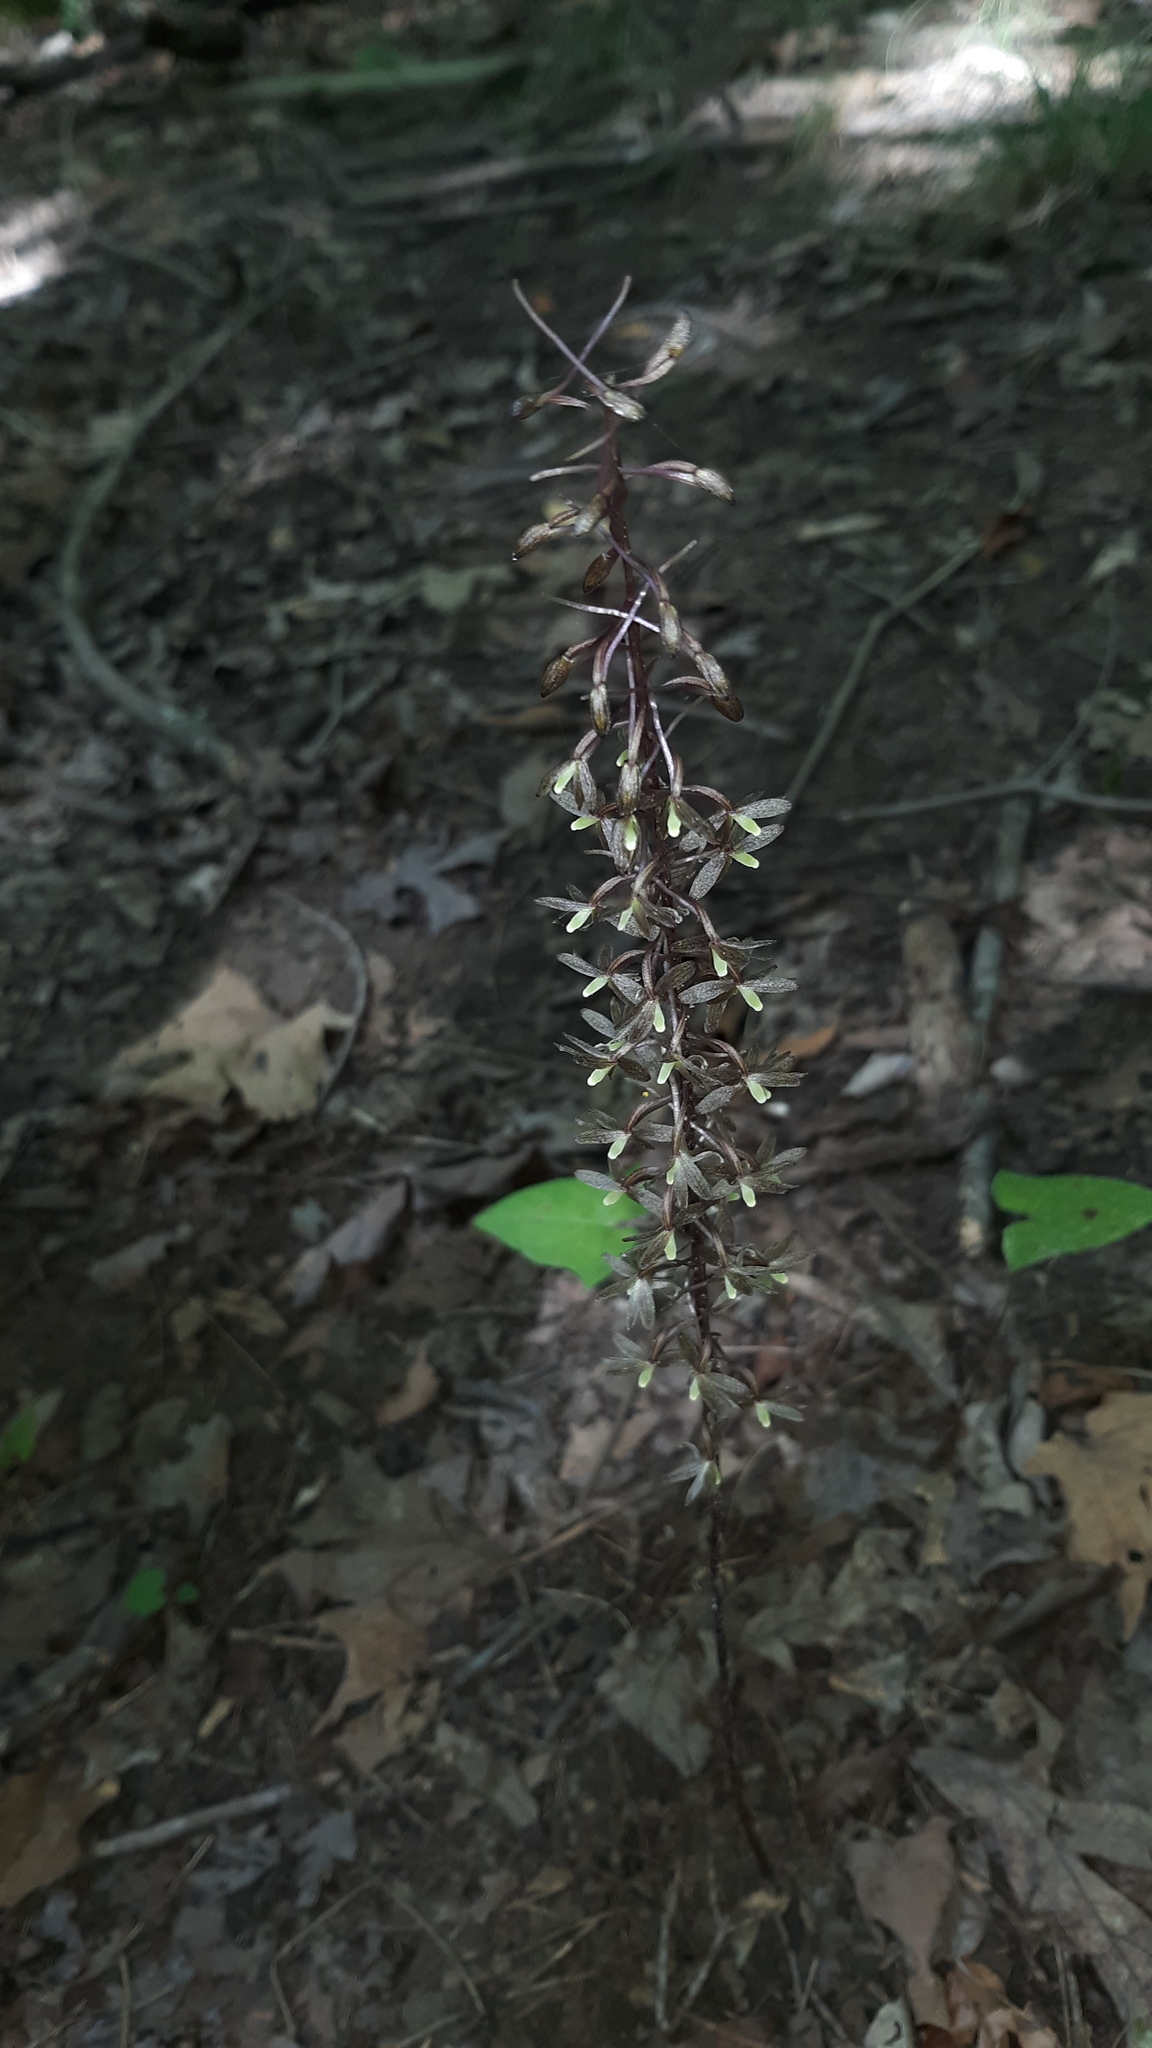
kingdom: Plantae
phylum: Tracheophyta
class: Liliopsida
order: Asparagales
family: Orchidaceae
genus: Tipularia
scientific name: Tipularia discolor
